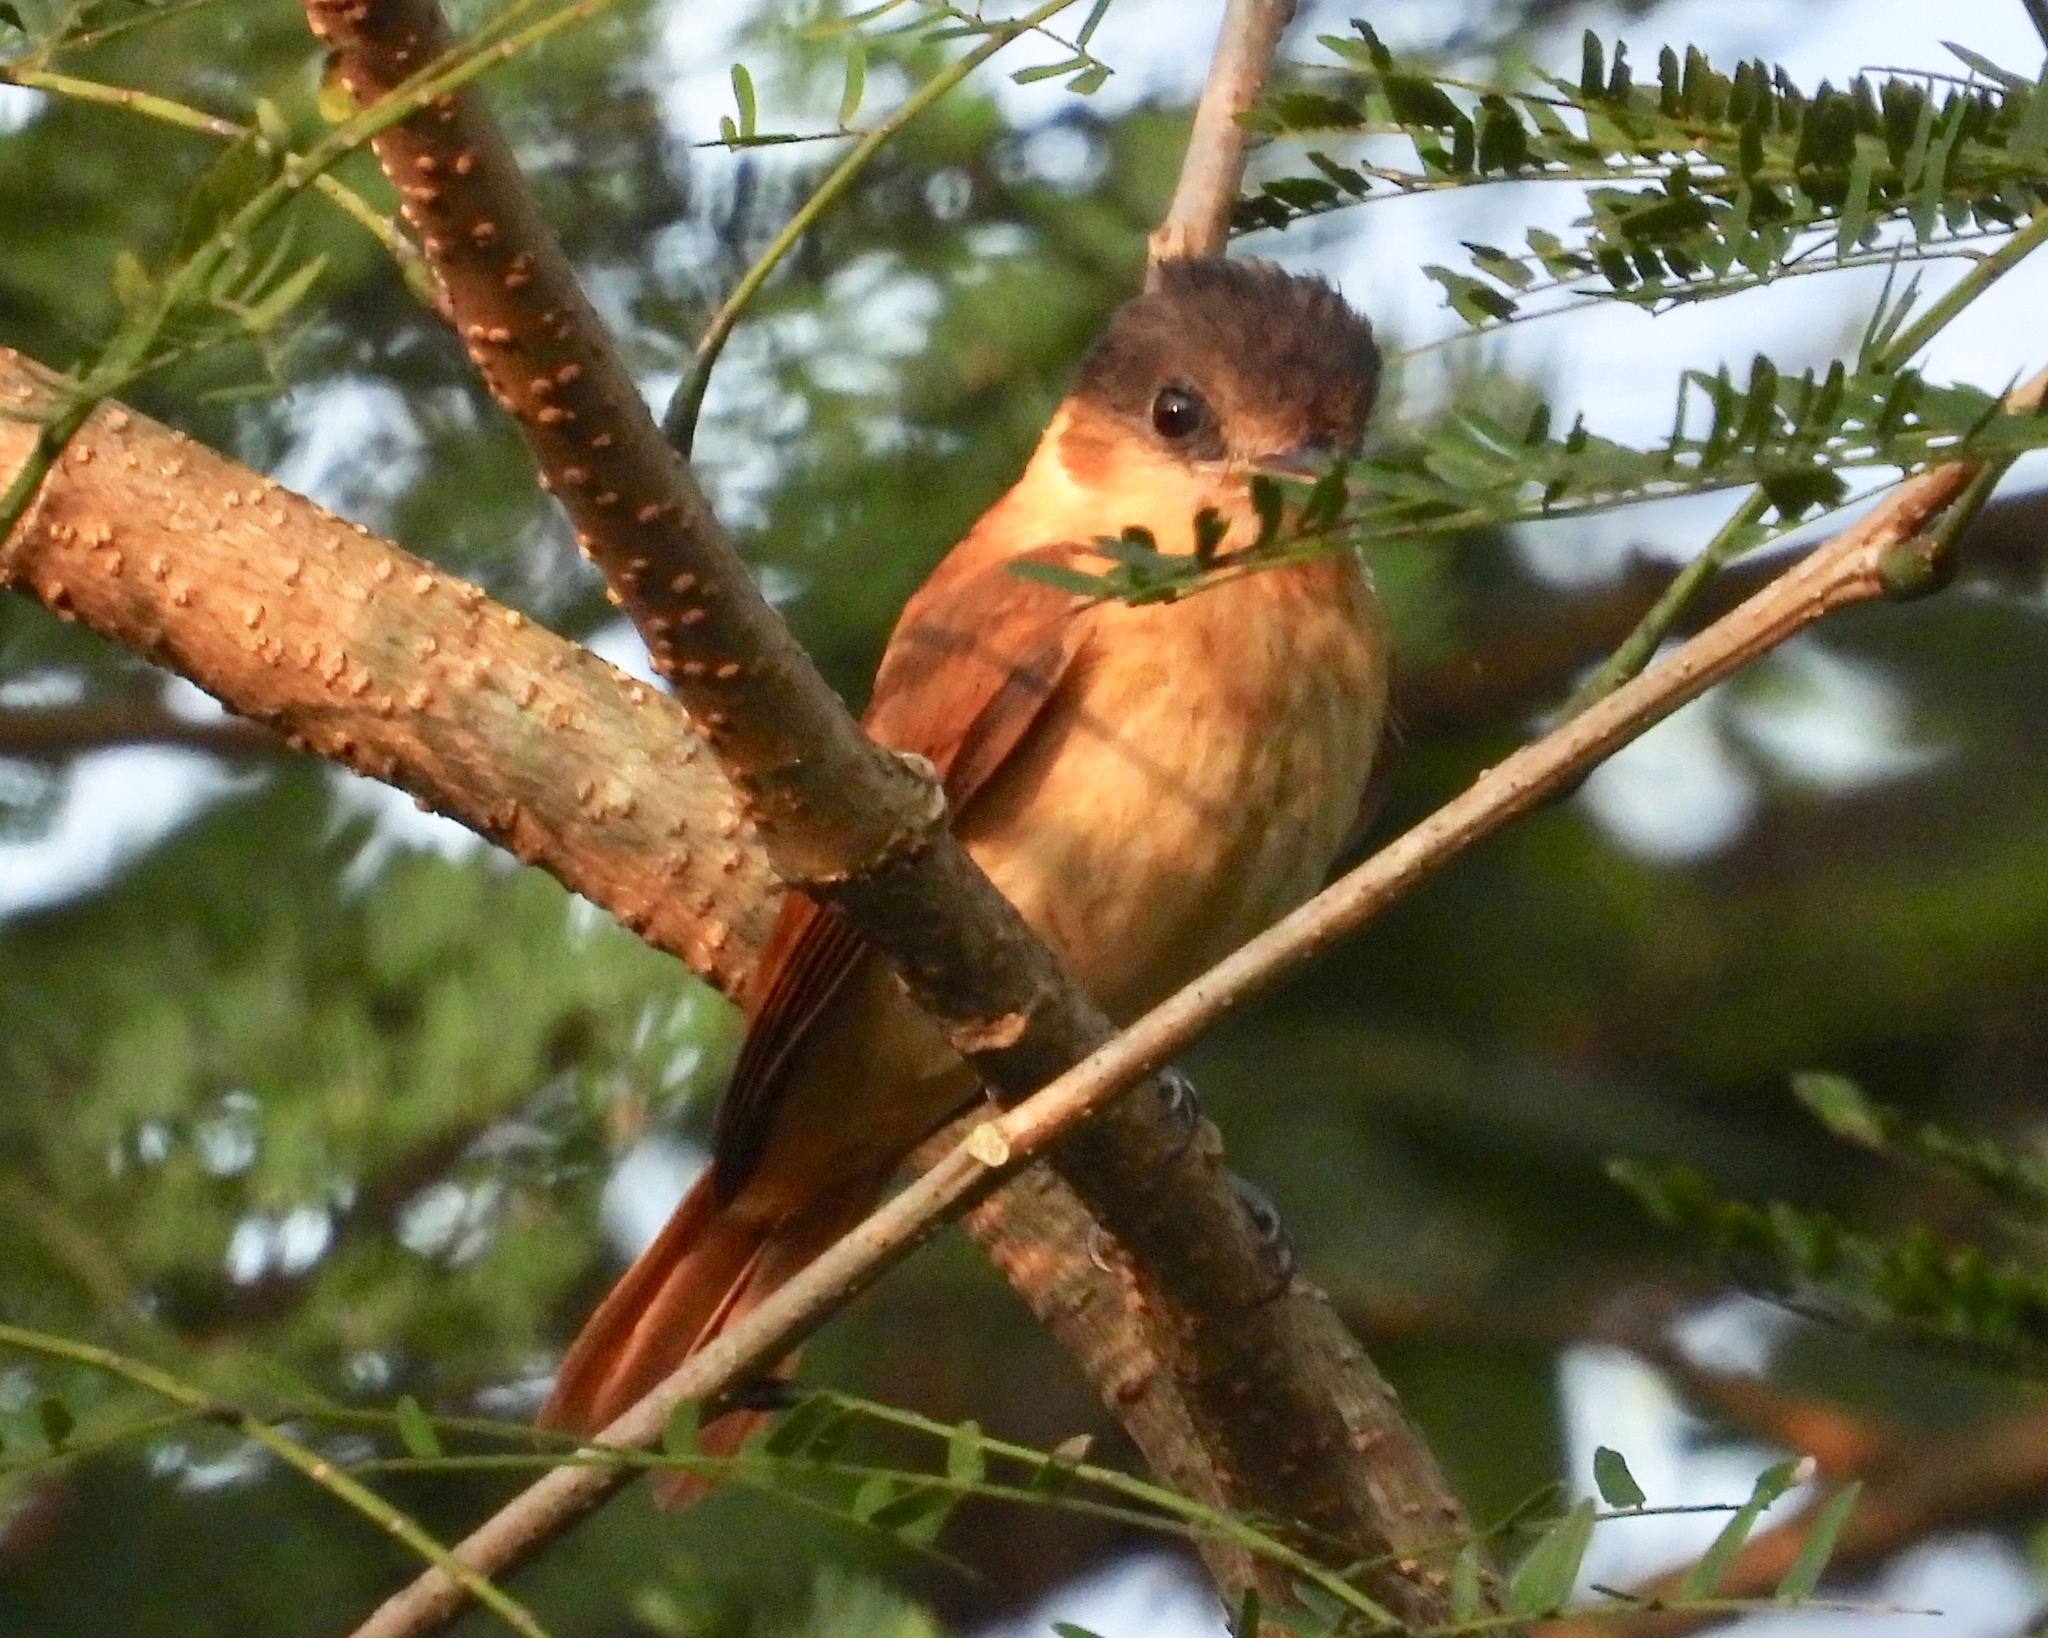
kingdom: Animalia
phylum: Chordata
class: Aves
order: Passeriformes
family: Cotingidae
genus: Pachyramphus
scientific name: Pachyramphus aglaiae
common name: Rose-throated becard
